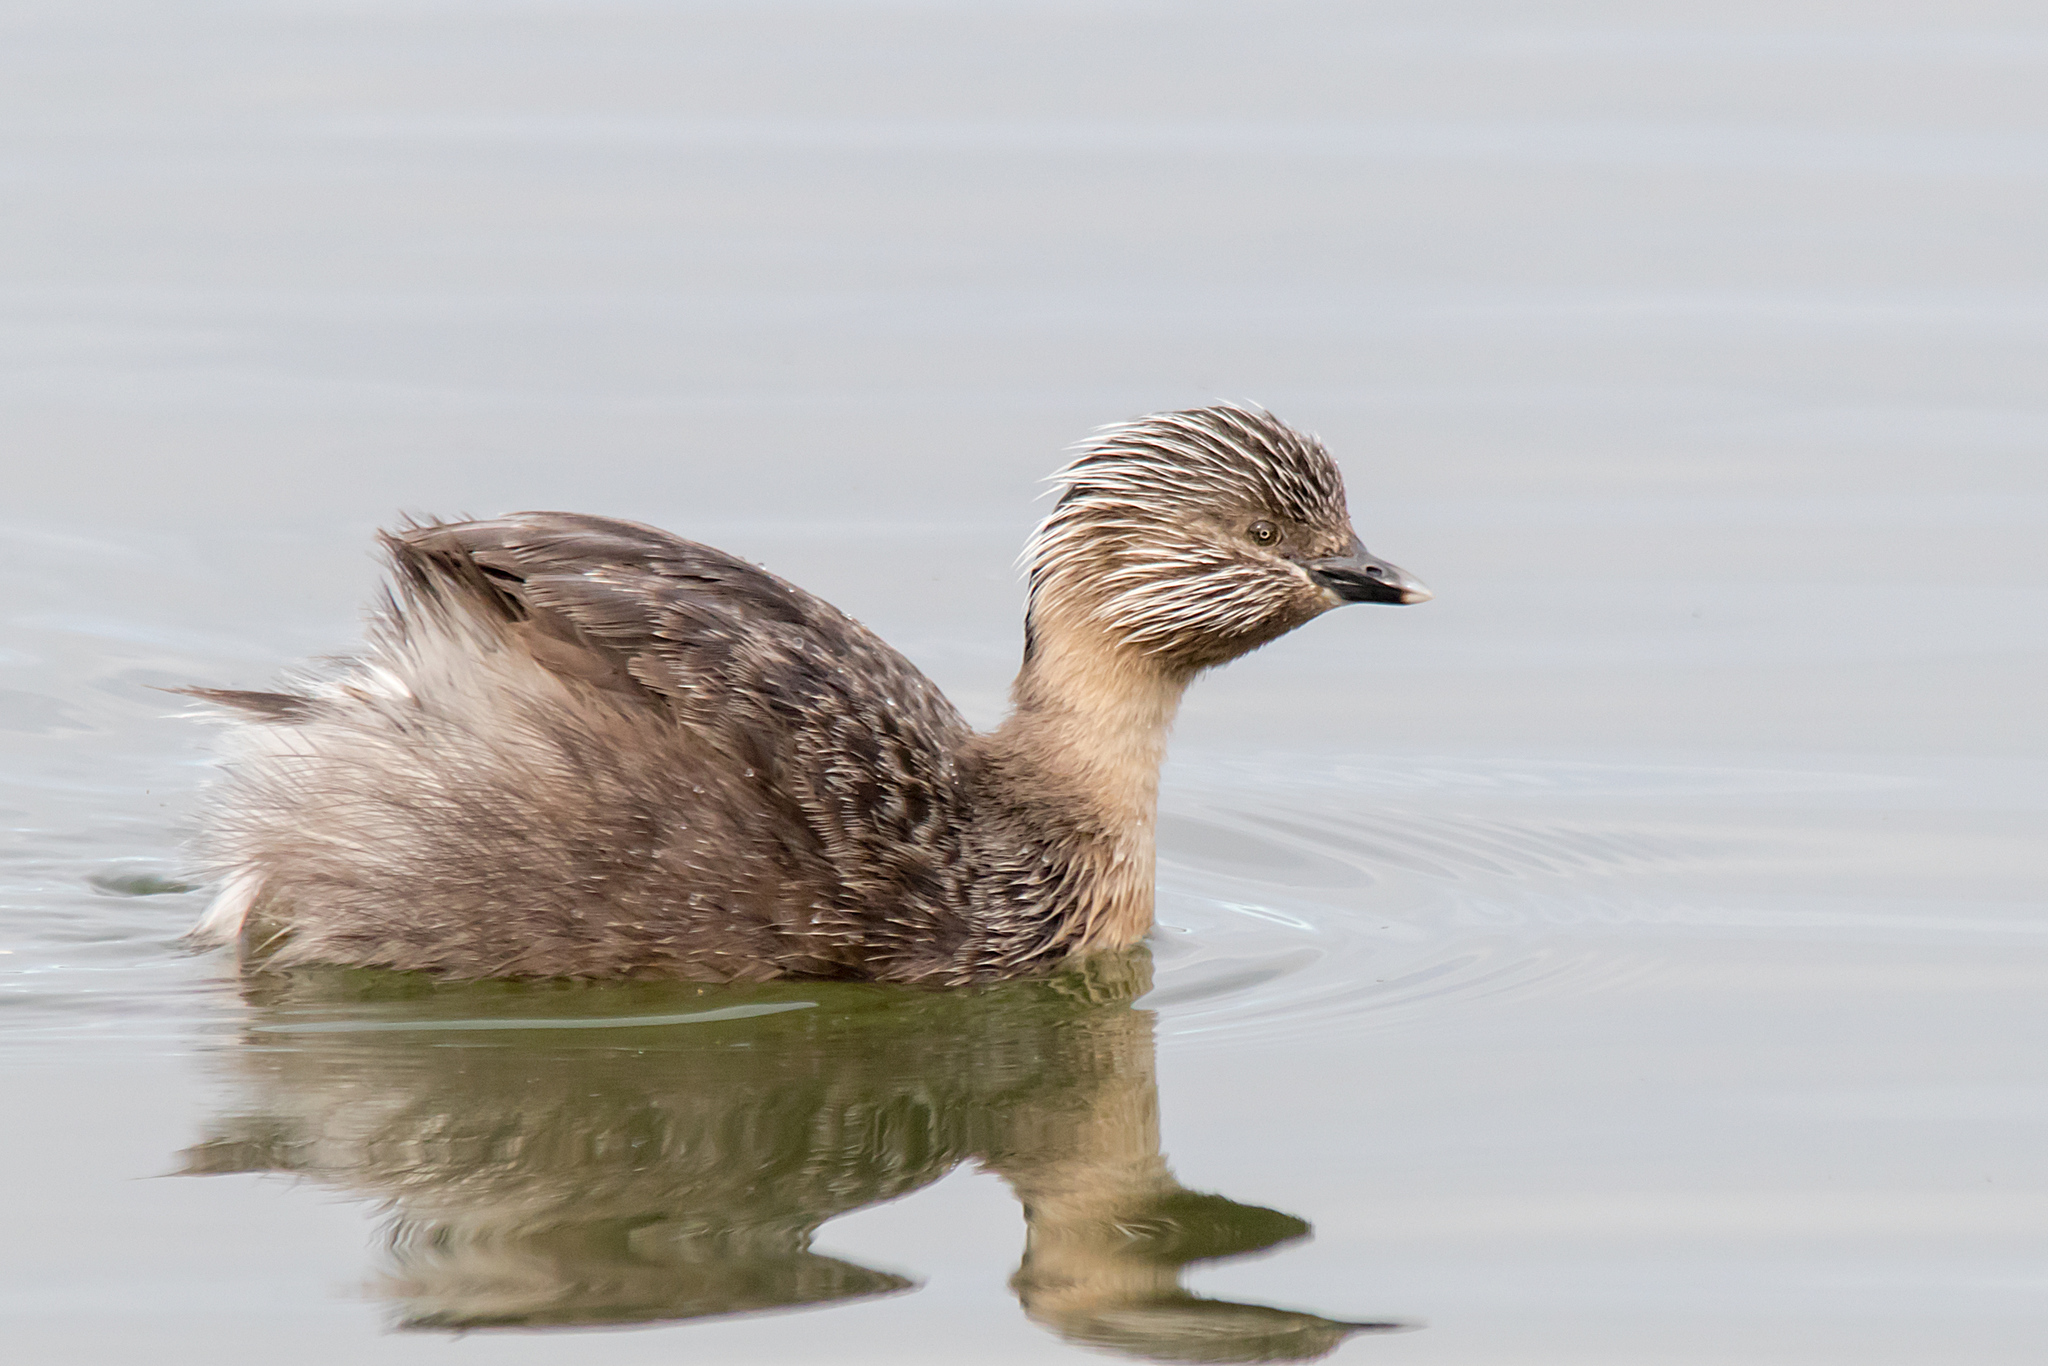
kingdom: Animalia
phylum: Chordata
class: Aves
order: Podicipediformes
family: Podicipedidae
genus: Poliocephalus
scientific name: Poliocephalus poliocephalus
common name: Hoary-headed grebe
